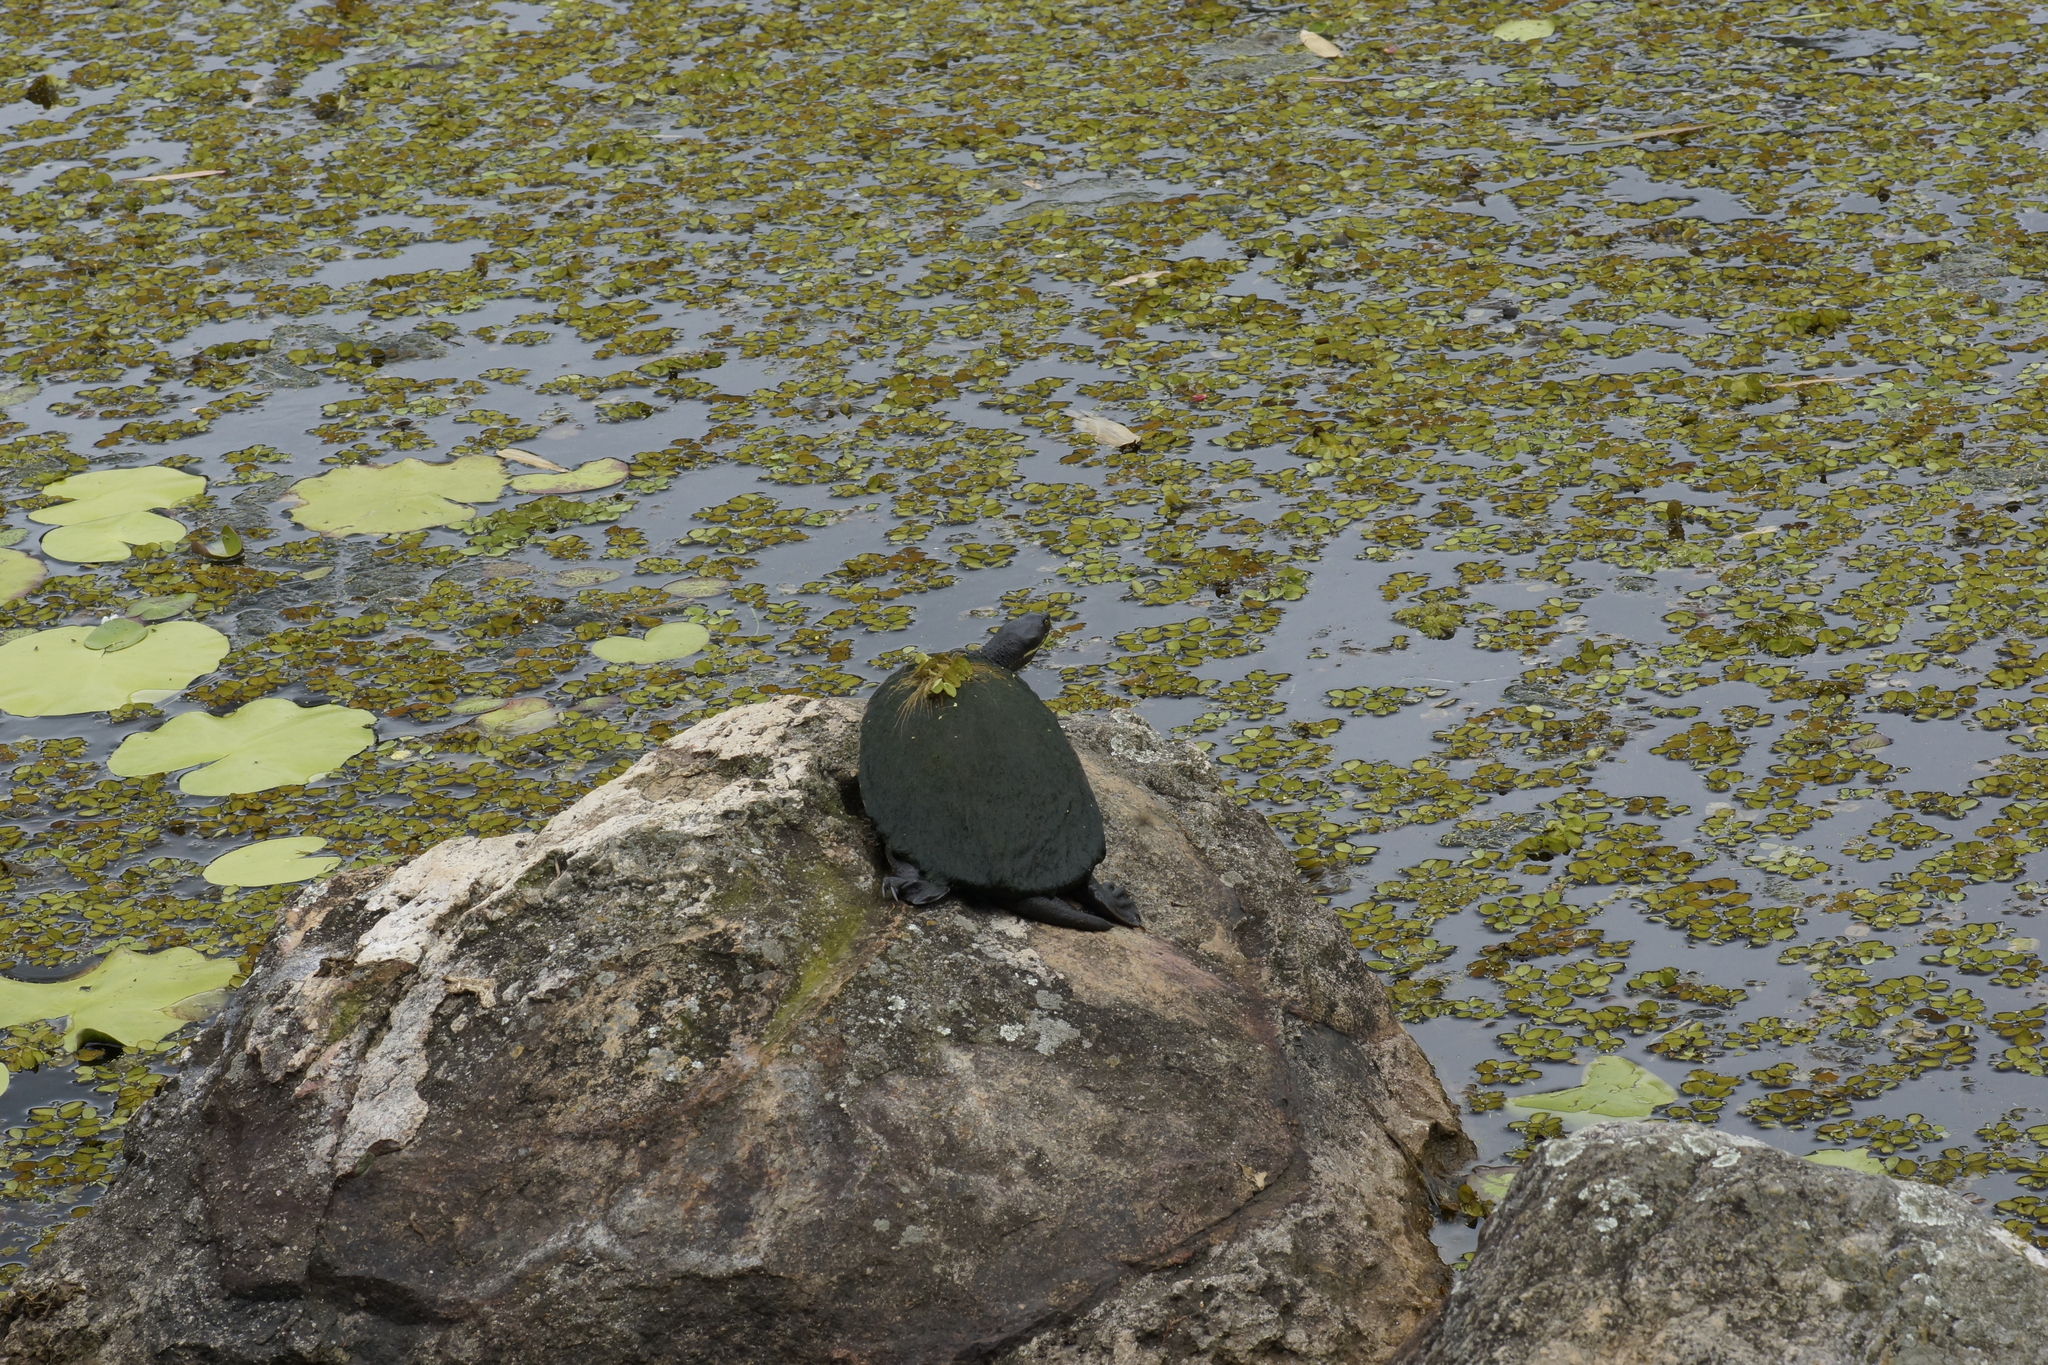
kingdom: Animalia
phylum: Chordata
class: Testudines
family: Chelidae
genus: Emydura
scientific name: Emydura macquarii
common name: Murray river turtle
